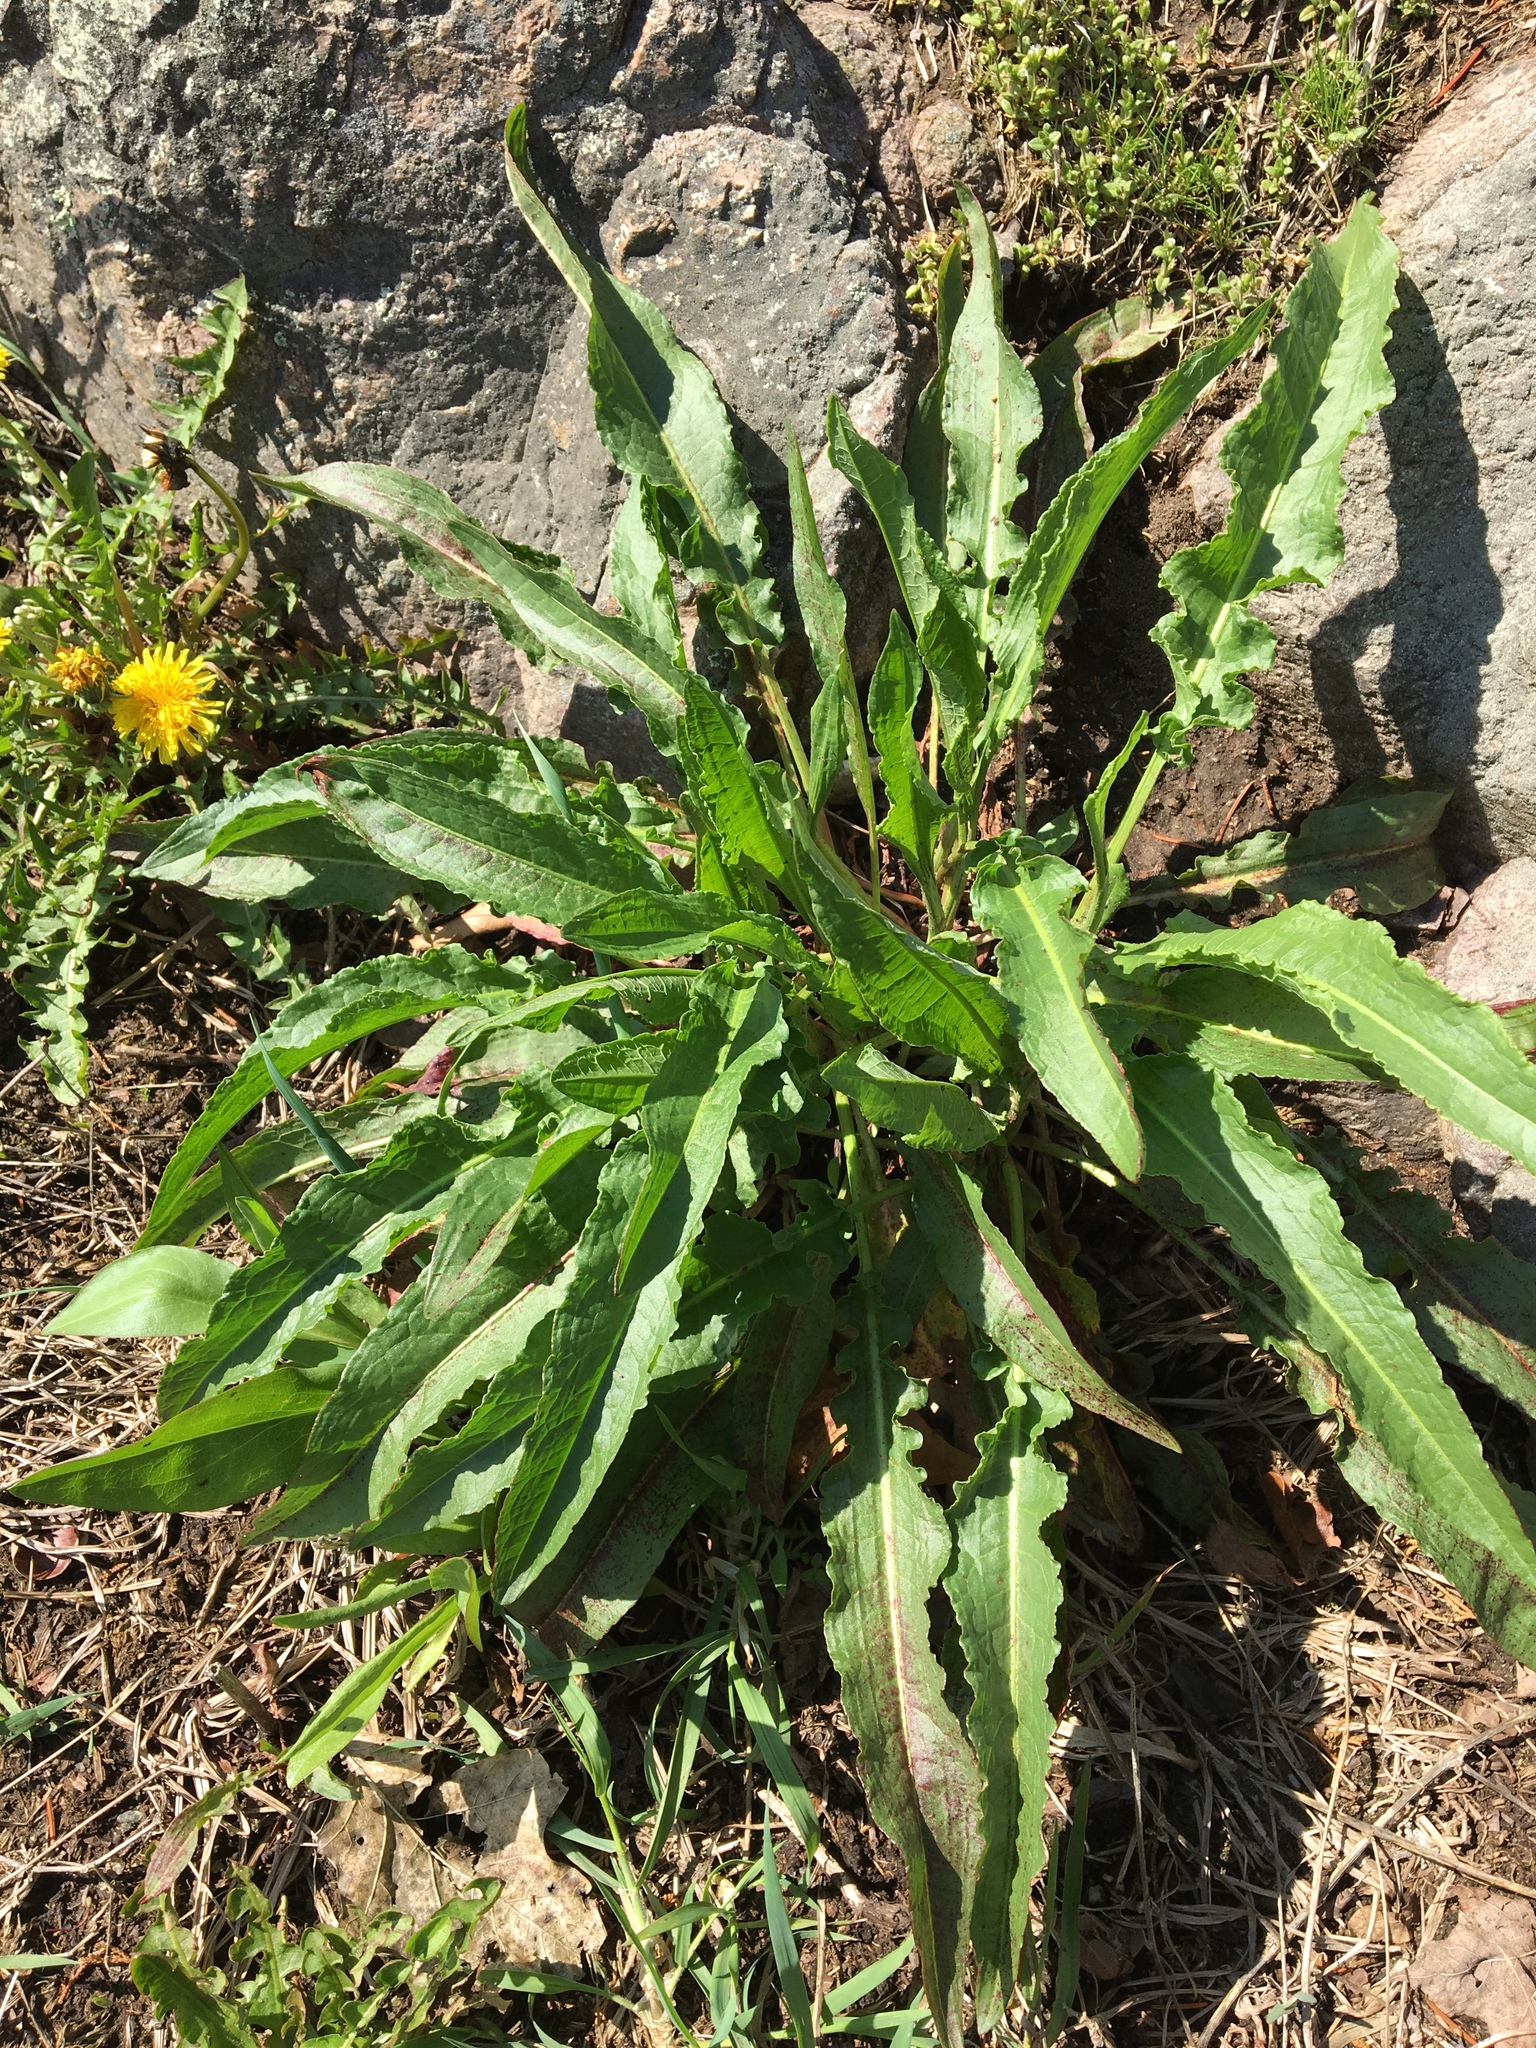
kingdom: Plantae
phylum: Tracheophyta
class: Magnoliopsida
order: Caryophyllales
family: Polygonaceae
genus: Rumex
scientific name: Rumex crispus
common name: Curled dock
